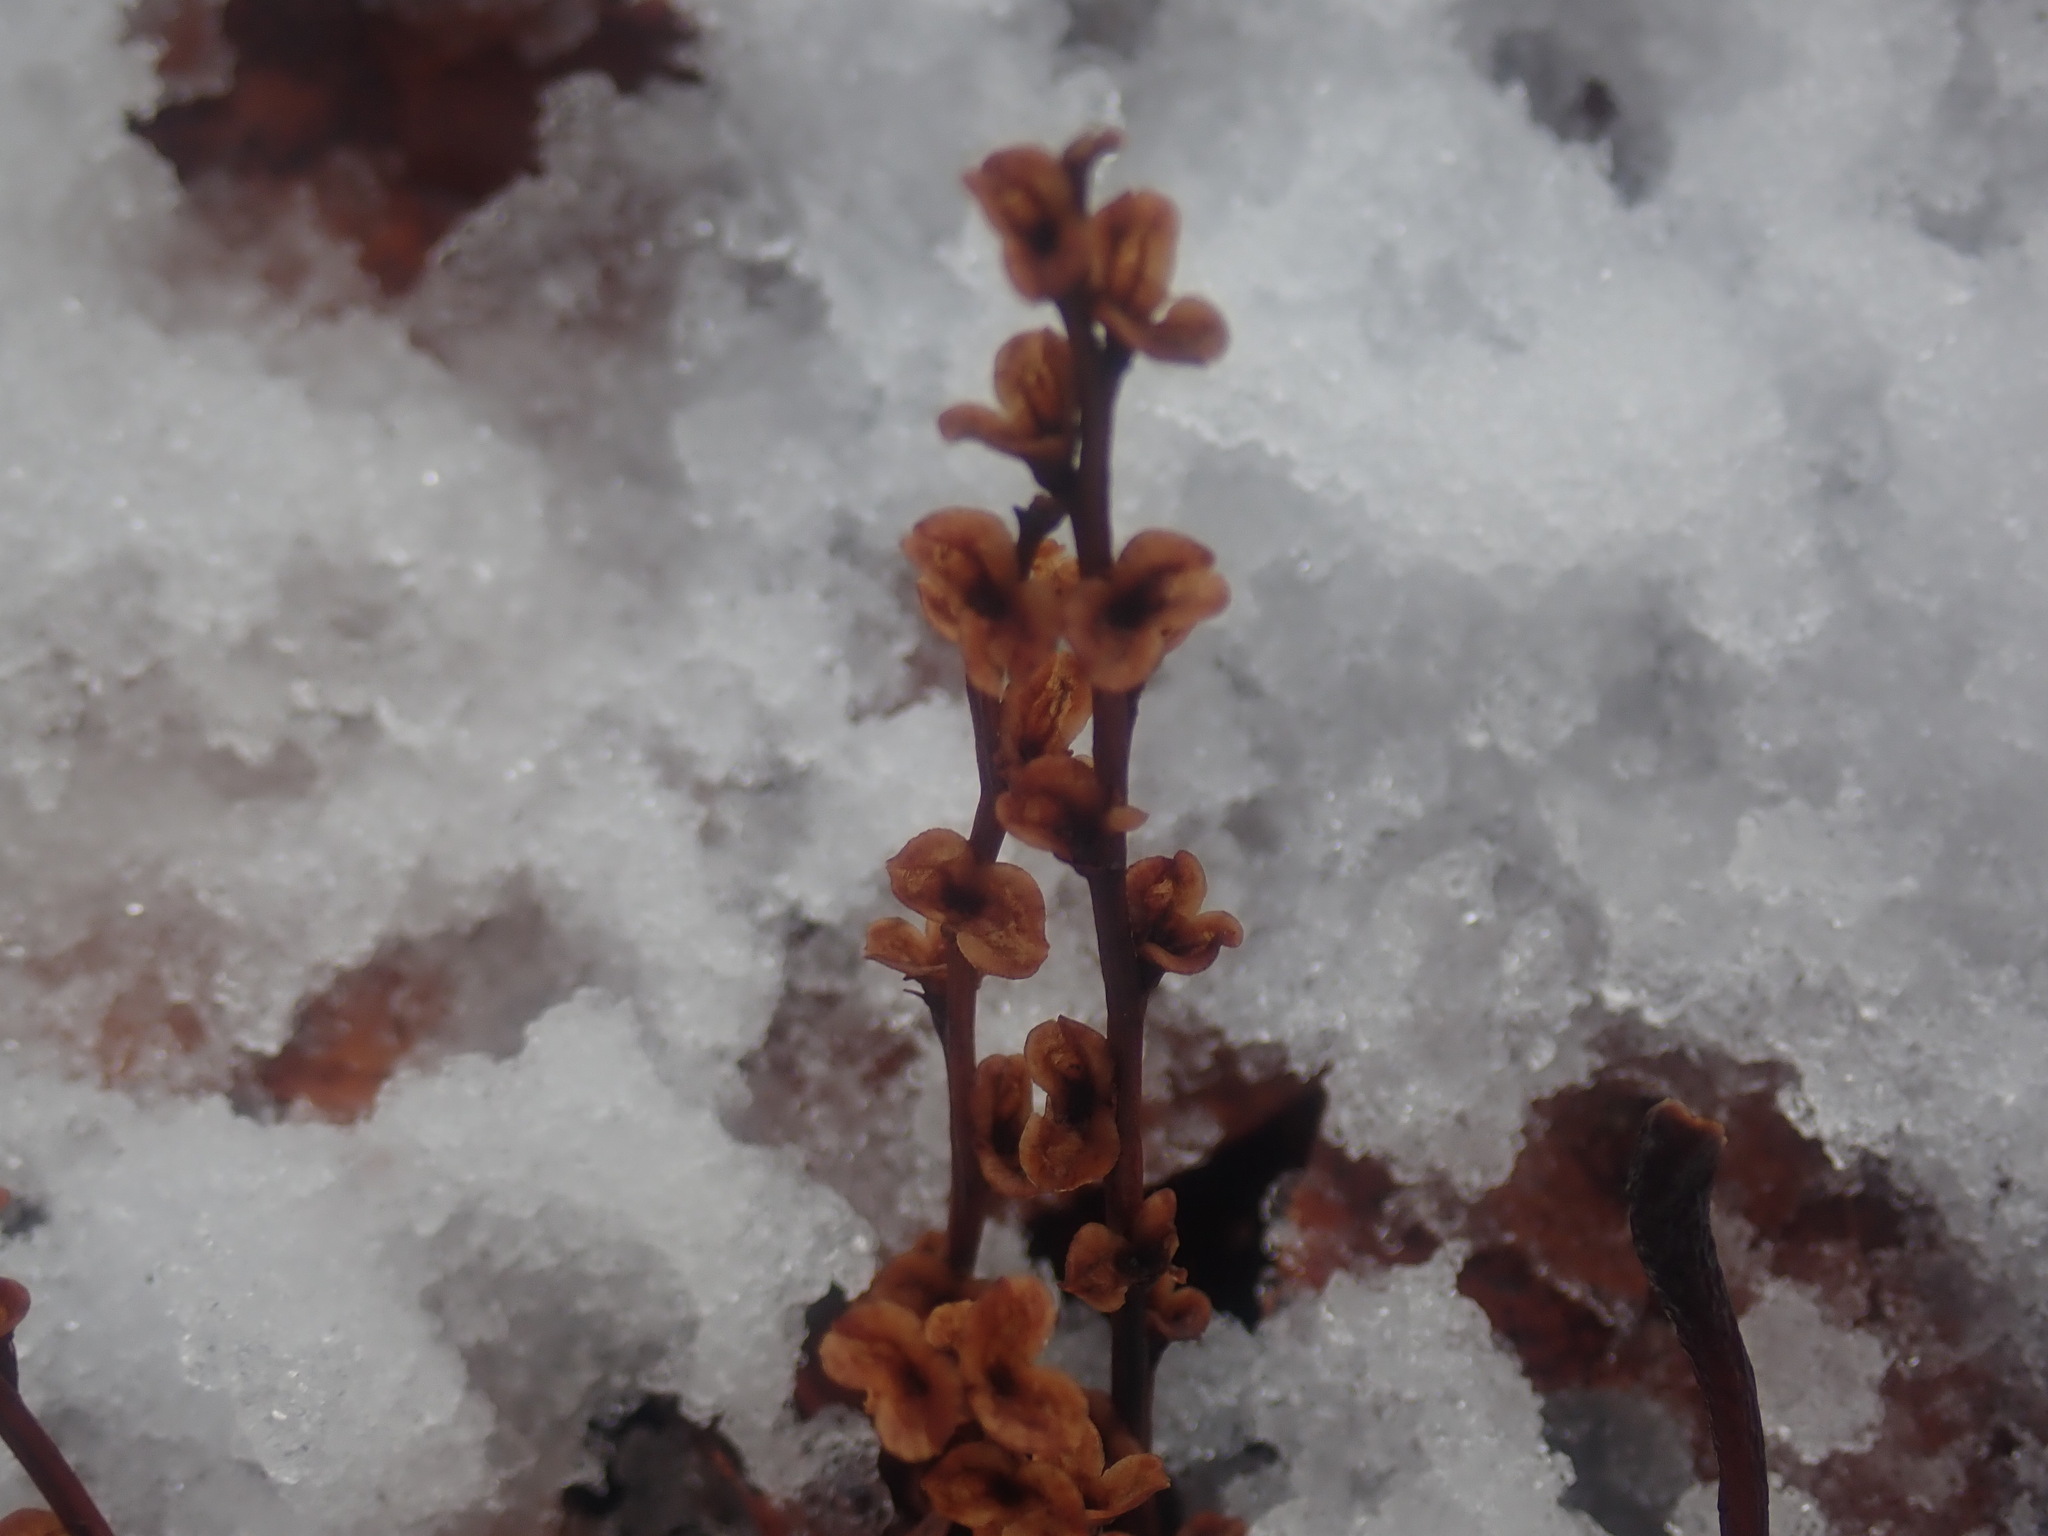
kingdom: Plantae
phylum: Tracheophyta
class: Magnoliopsida
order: Lamiales
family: Orobanchaceae
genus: Epifagus
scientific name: Epifagus virginiana
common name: Beechdrops
